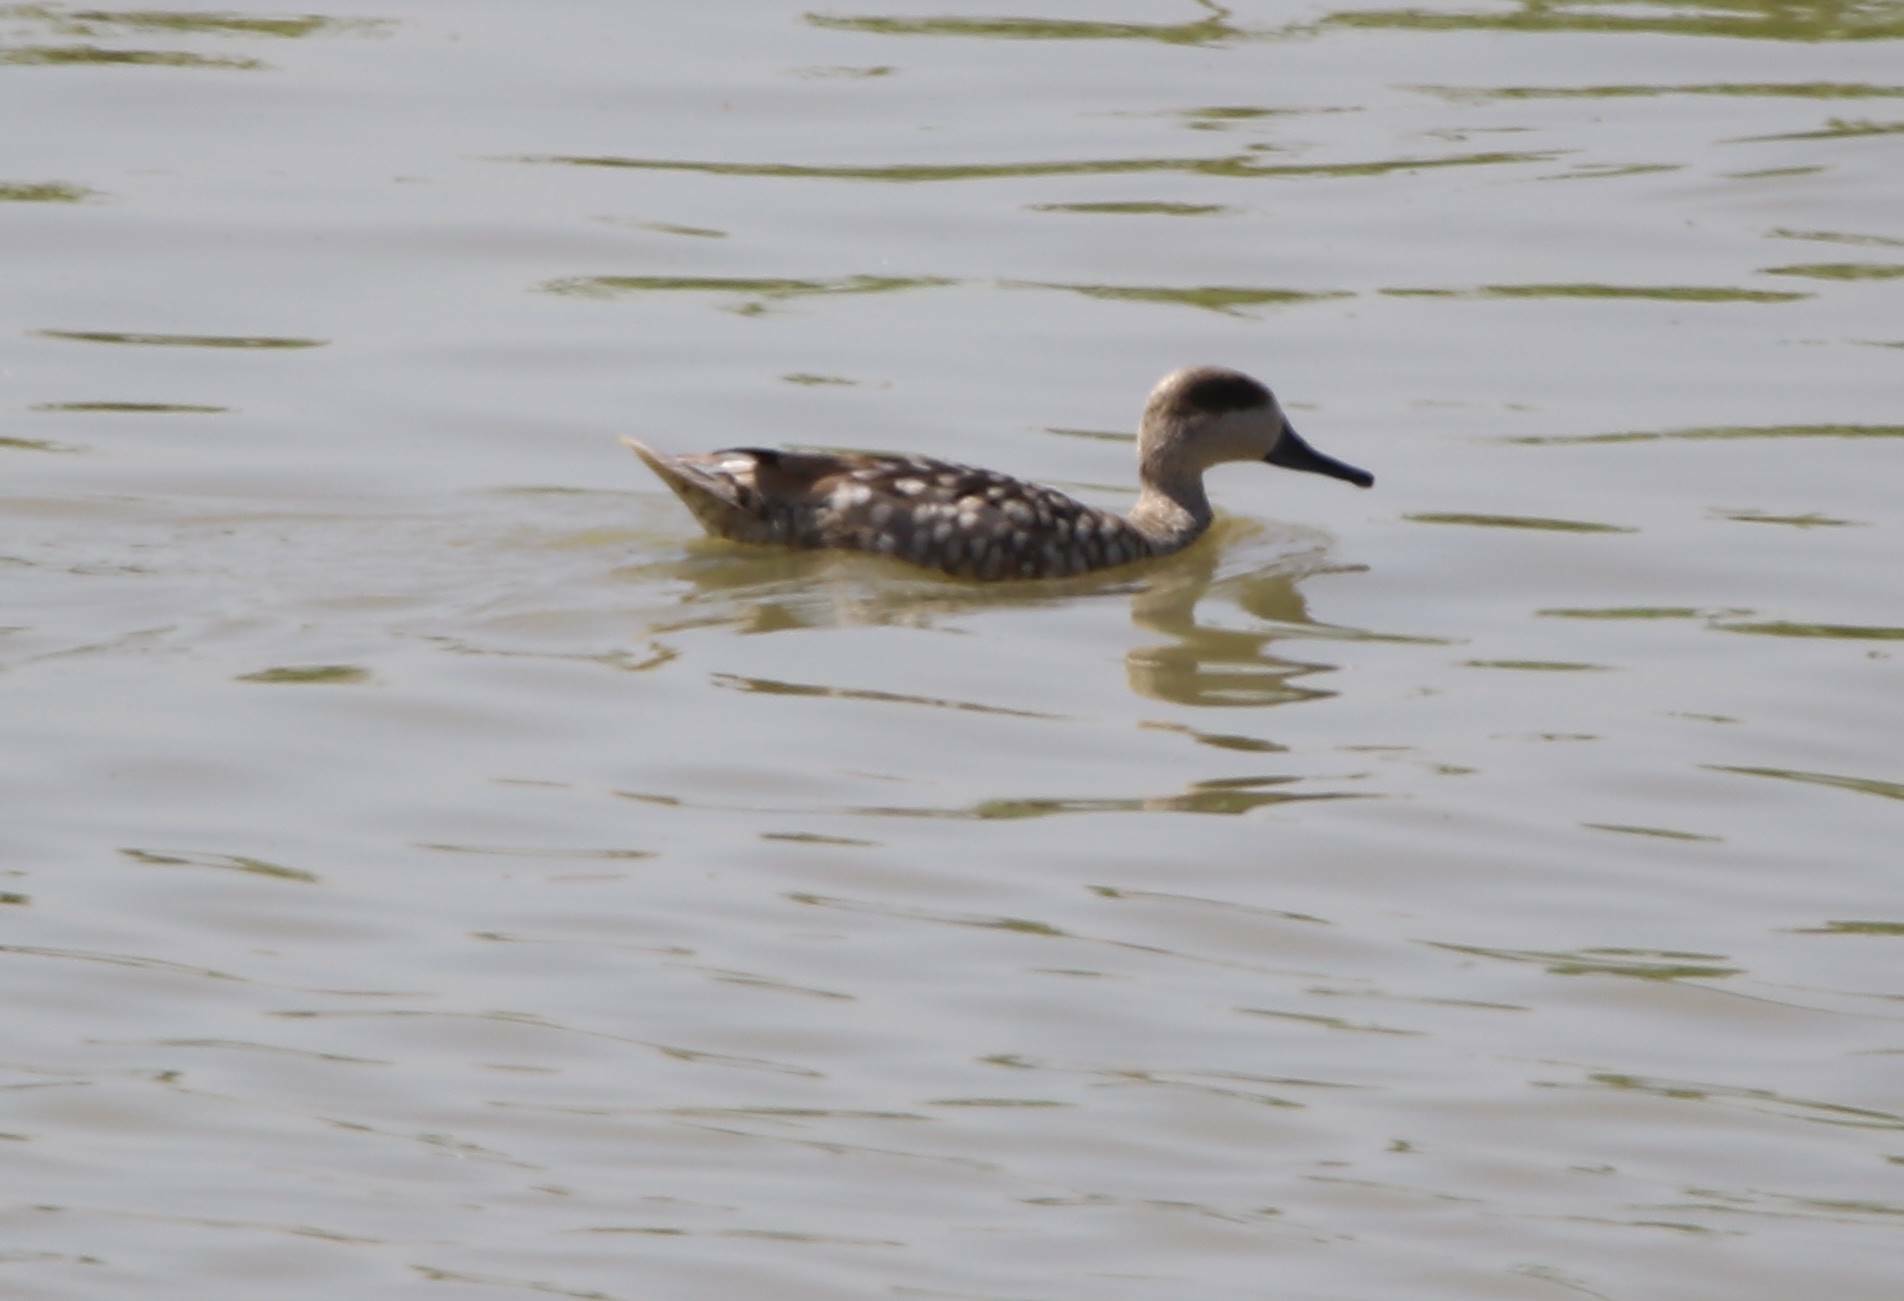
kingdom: Animalia
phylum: Chordata
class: Aves
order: Anseriformes
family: Anatidae
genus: Marmaronetta
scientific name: Marmaronetta angustirostris
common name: Marbled duck
